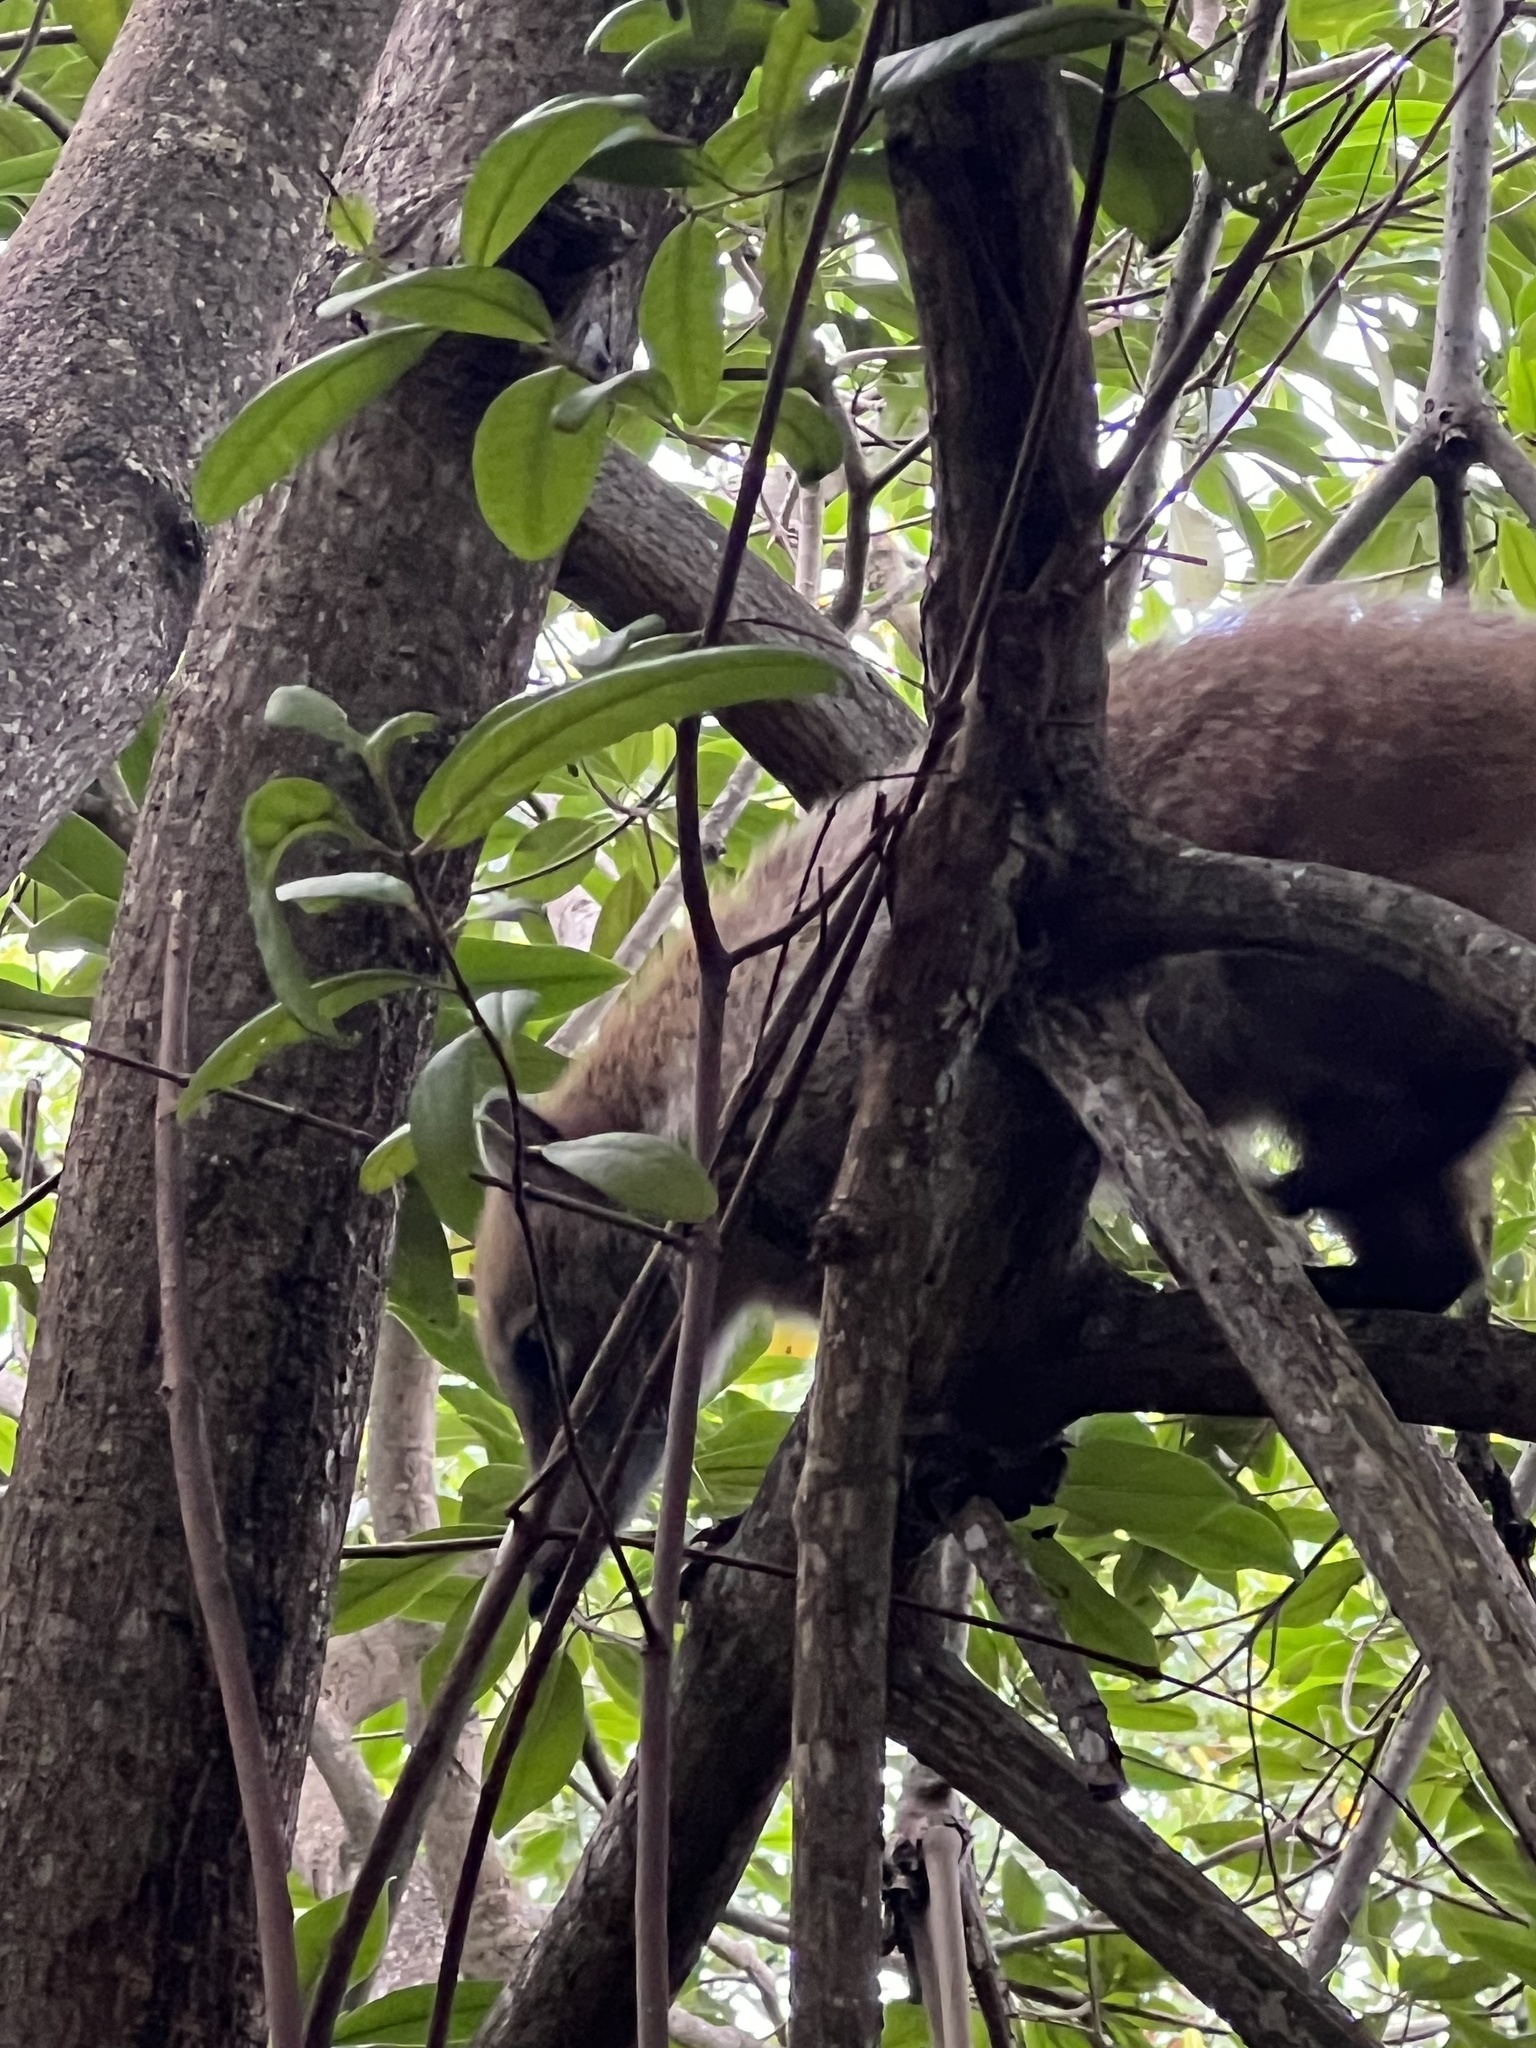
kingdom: Animalia
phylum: Chordata
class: Mammalia
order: Carnivora
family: Procyonidae
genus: Nasua
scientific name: Nasua narica
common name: White-nosed coati
